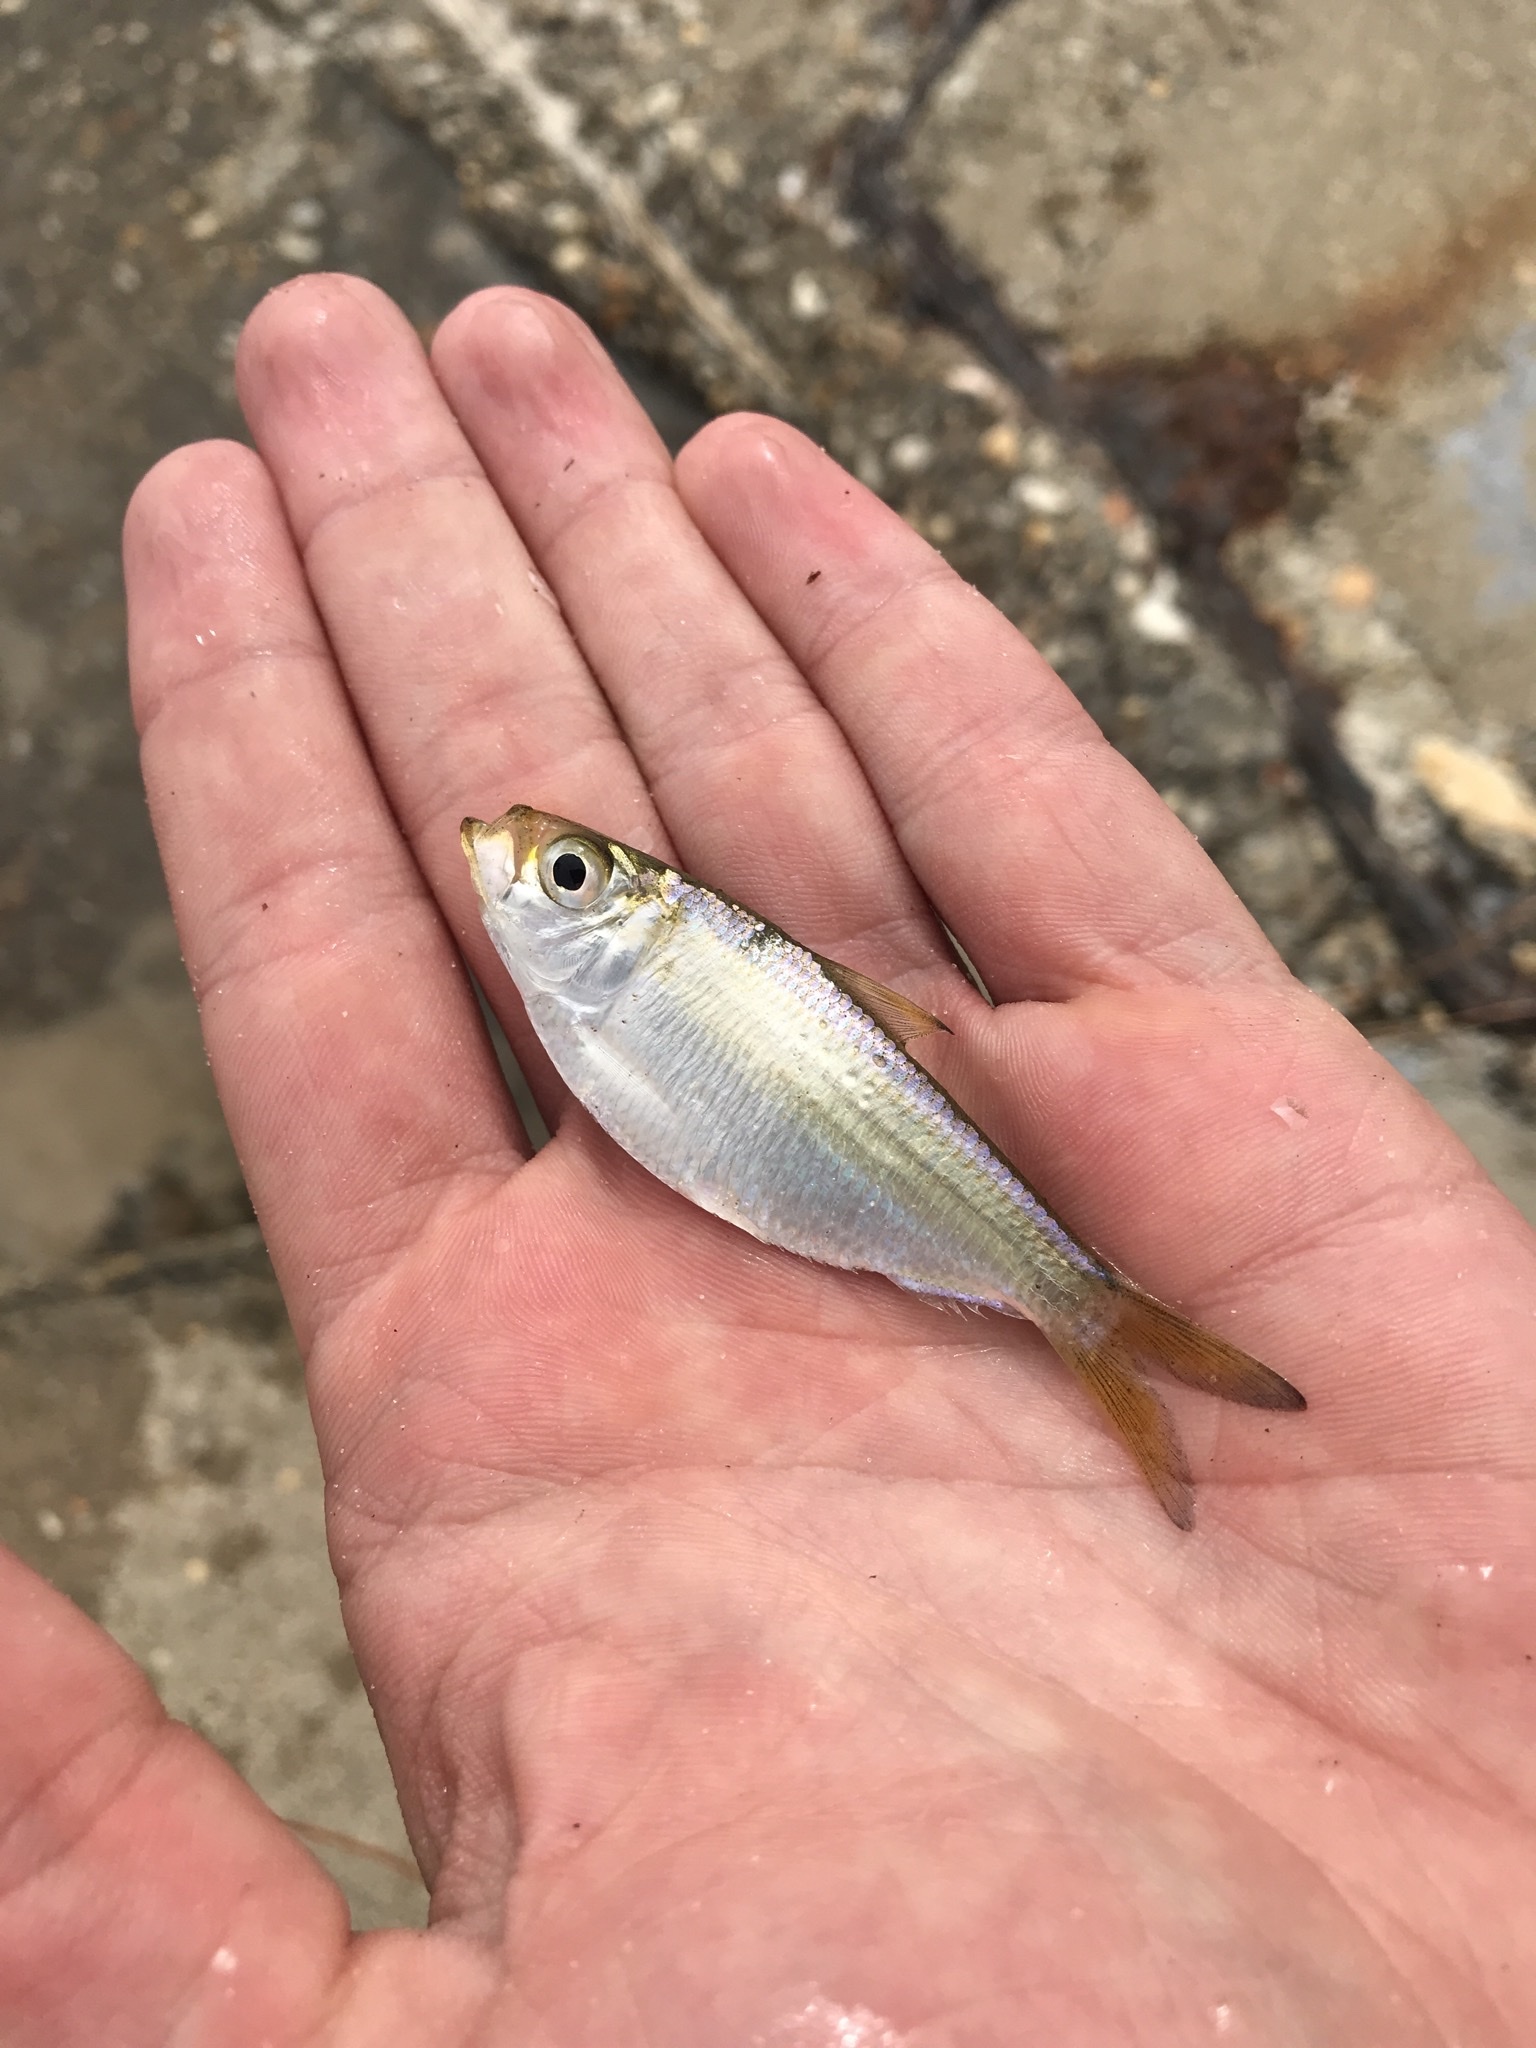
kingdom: Animalia
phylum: Chordata
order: Clupeiformes
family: Clupeidae
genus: Harengula
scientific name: Harengula jaguana
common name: Scaled sardine
